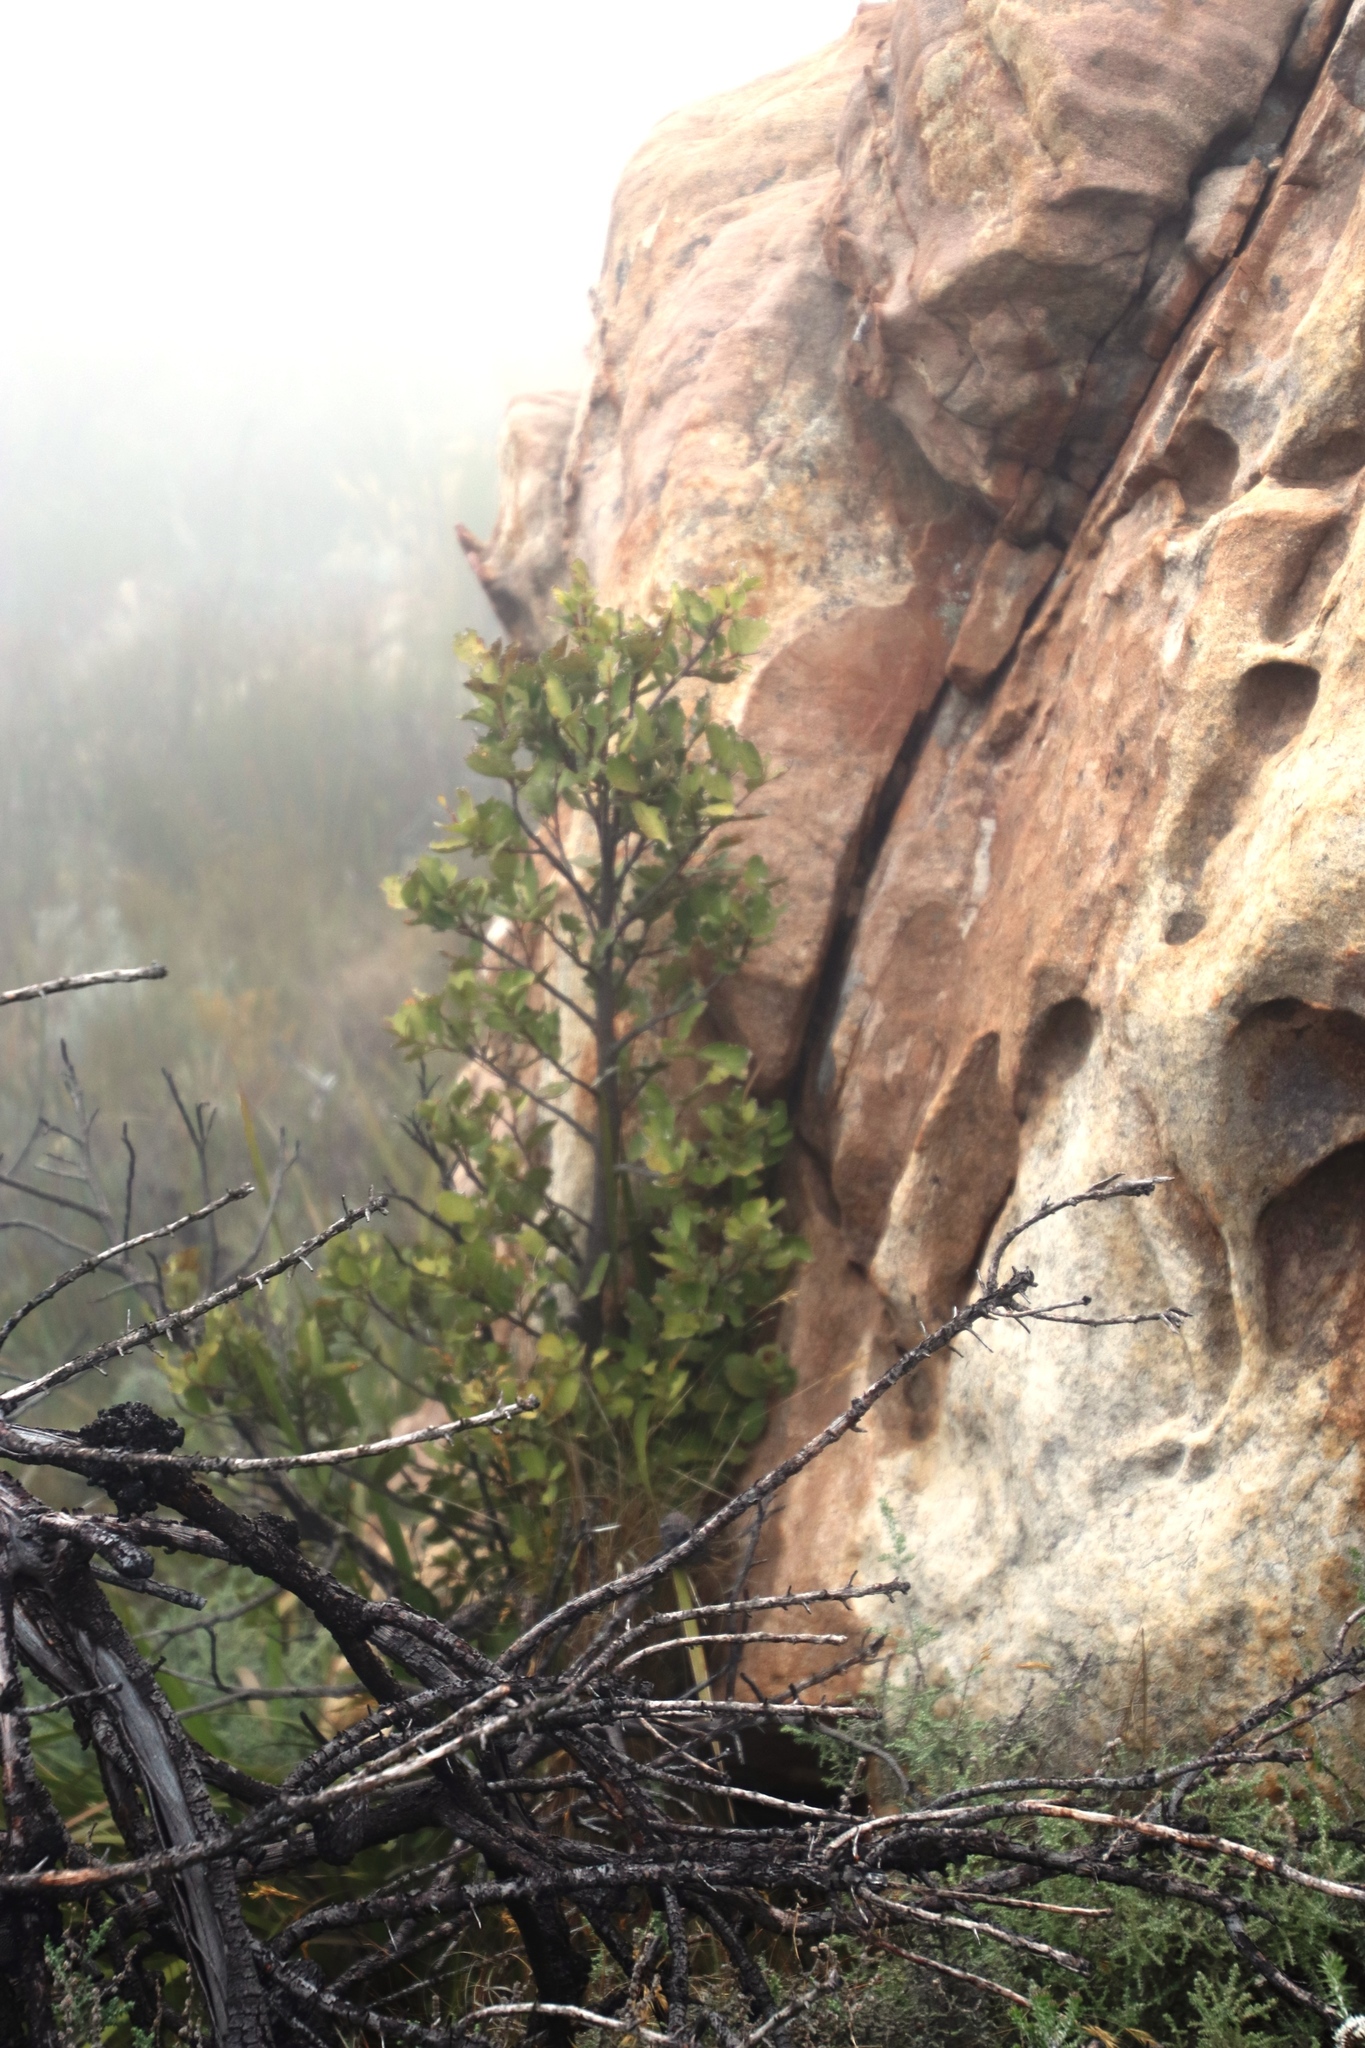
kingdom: Plantae
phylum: Tracheophyta
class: Magnoliopsida
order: Celastrales
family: Celastraceae
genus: Gymnosporia
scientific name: Gymnosporia laurina
